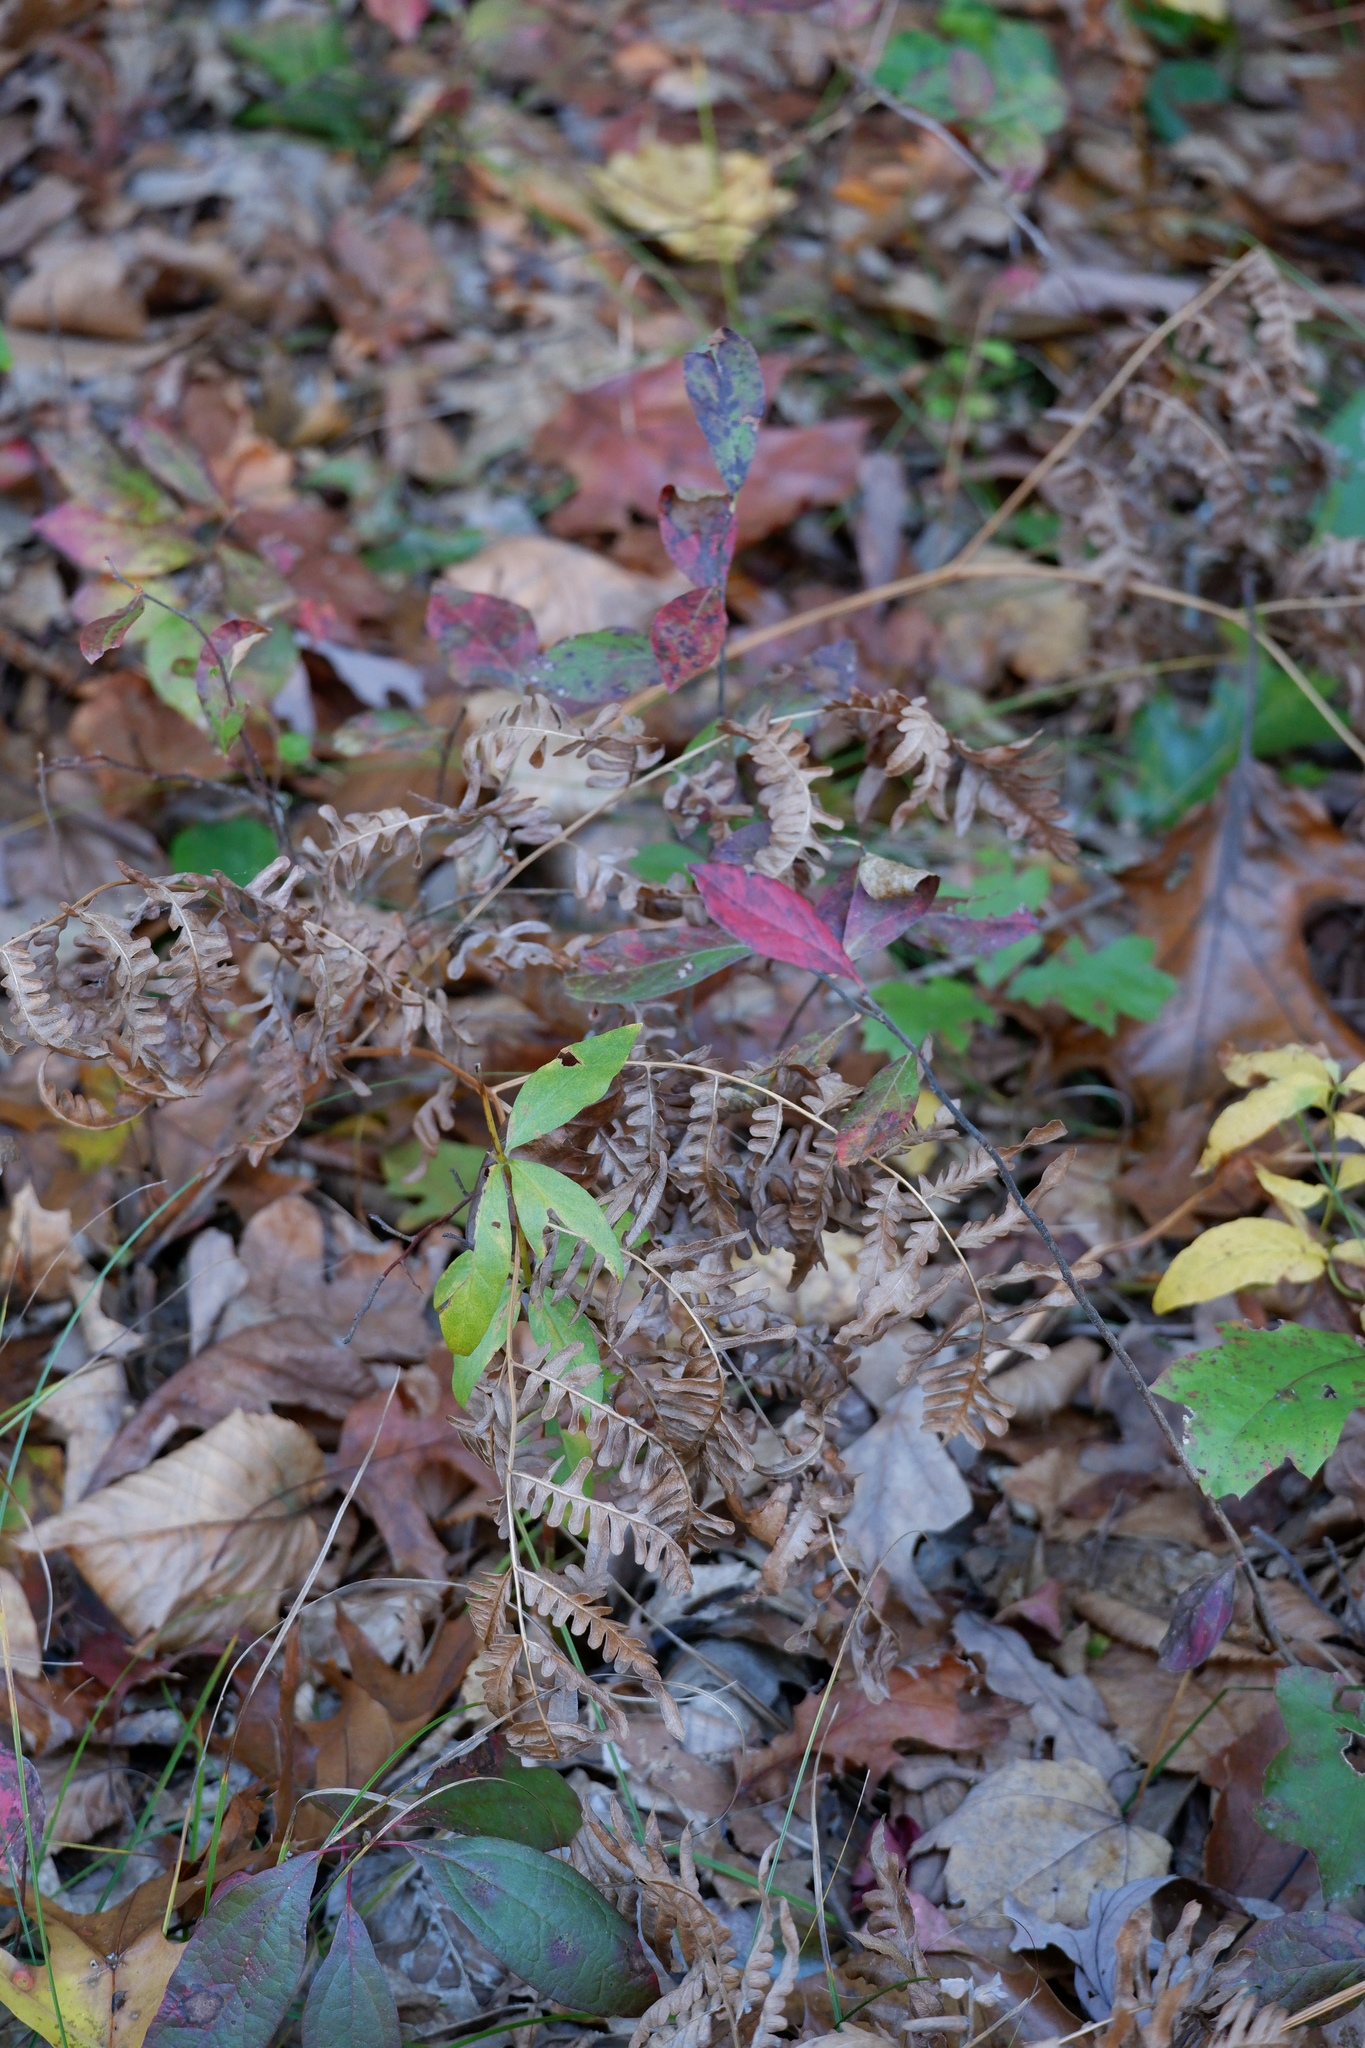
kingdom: Plantae
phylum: Tracheophyta
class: Polypodiopsida
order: Polypodiales
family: Dennstaedtiaceae
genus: Pteridium
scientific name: Pteridium aquilinum
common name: Bracken
